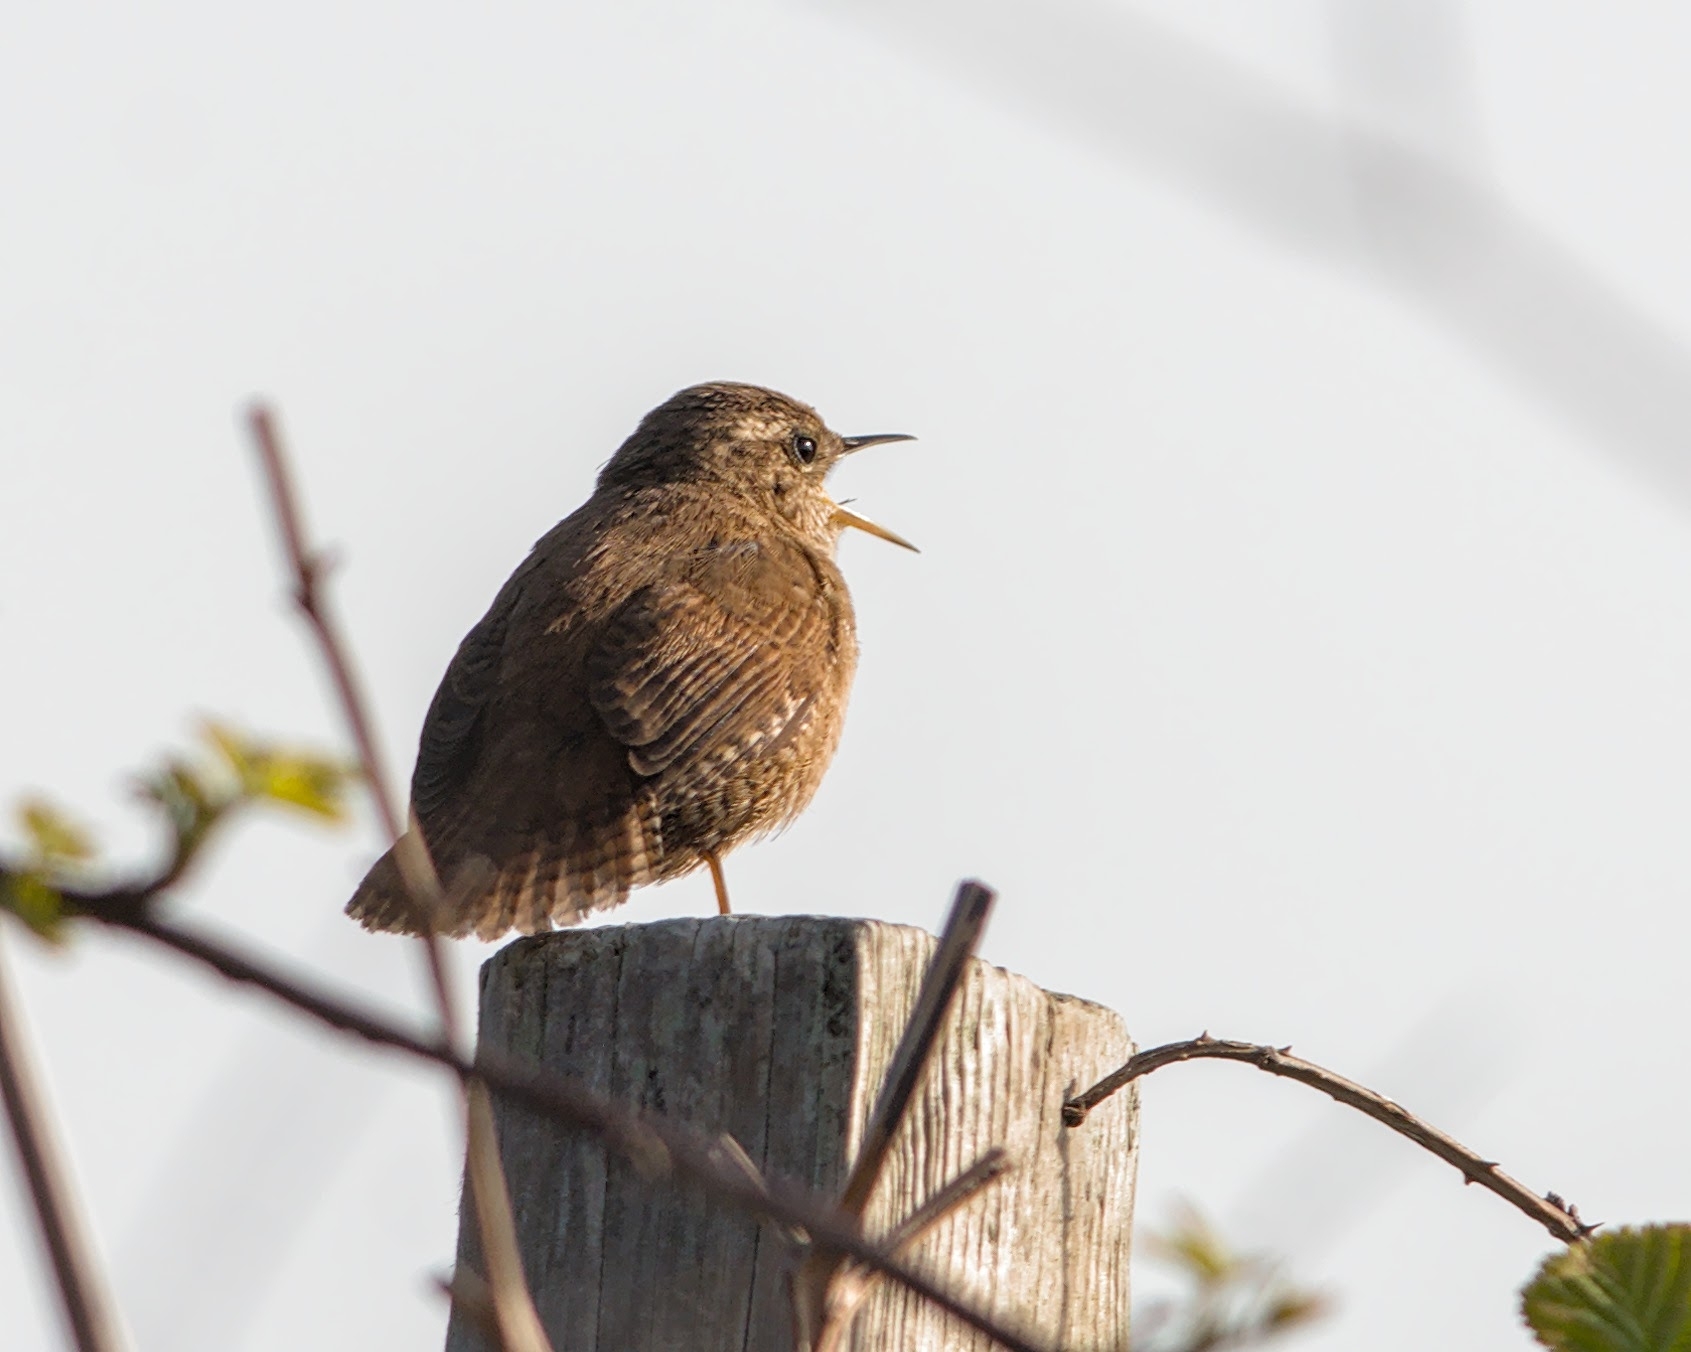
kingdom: Animalia
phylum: Chordata
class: Aves
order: Passeriformes
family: Troglodytidae
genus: Troglodytes
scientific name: Troglodytes troglodytes
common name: Eurasian wren
